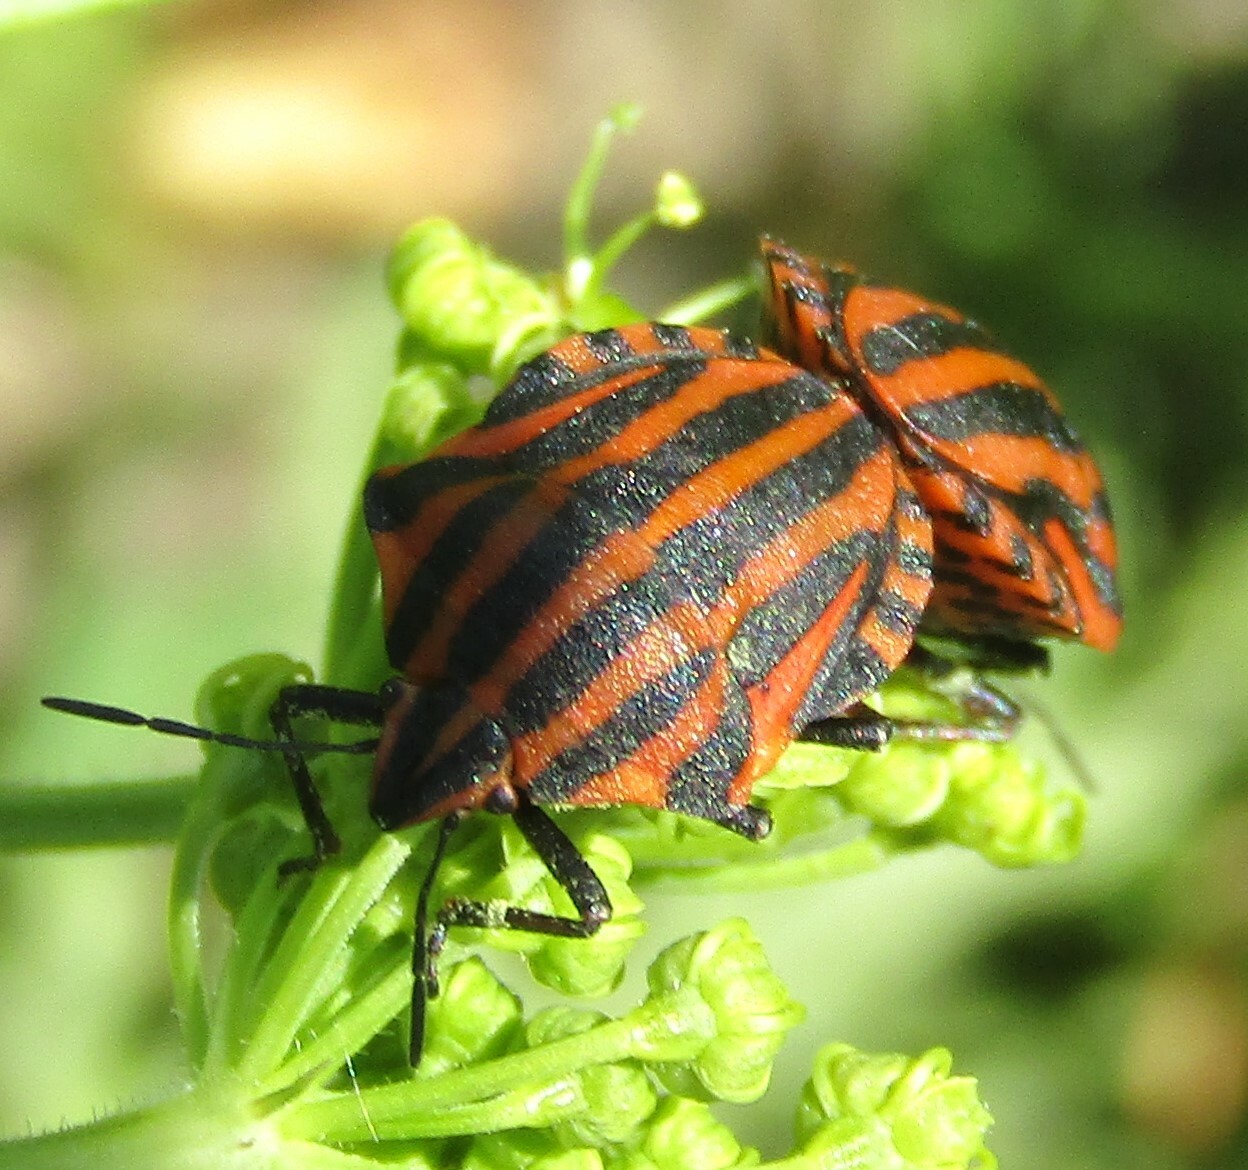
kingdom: Animalia
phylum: Arthropoda
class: Insecta
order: Hemiptera
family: Pentatomidae
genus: Graphosoma
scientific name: Graphosoma italicum
